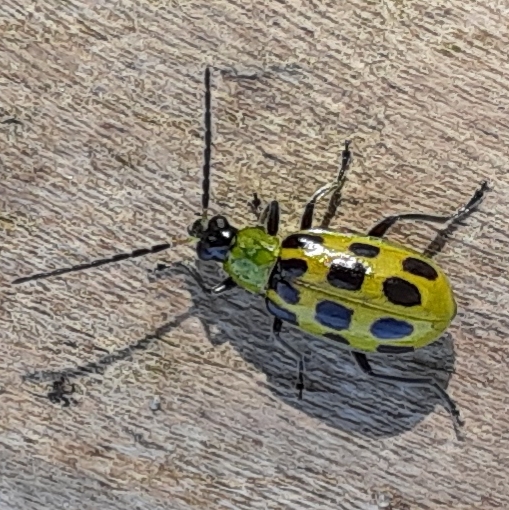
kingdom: Animalia
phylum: Arthropoda
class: Insecta
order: Coleoptera
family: Chrysomelidae
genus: Diabrotica
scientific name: Diabrotica undecimpunctata
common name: Spotted cucumber beetle
